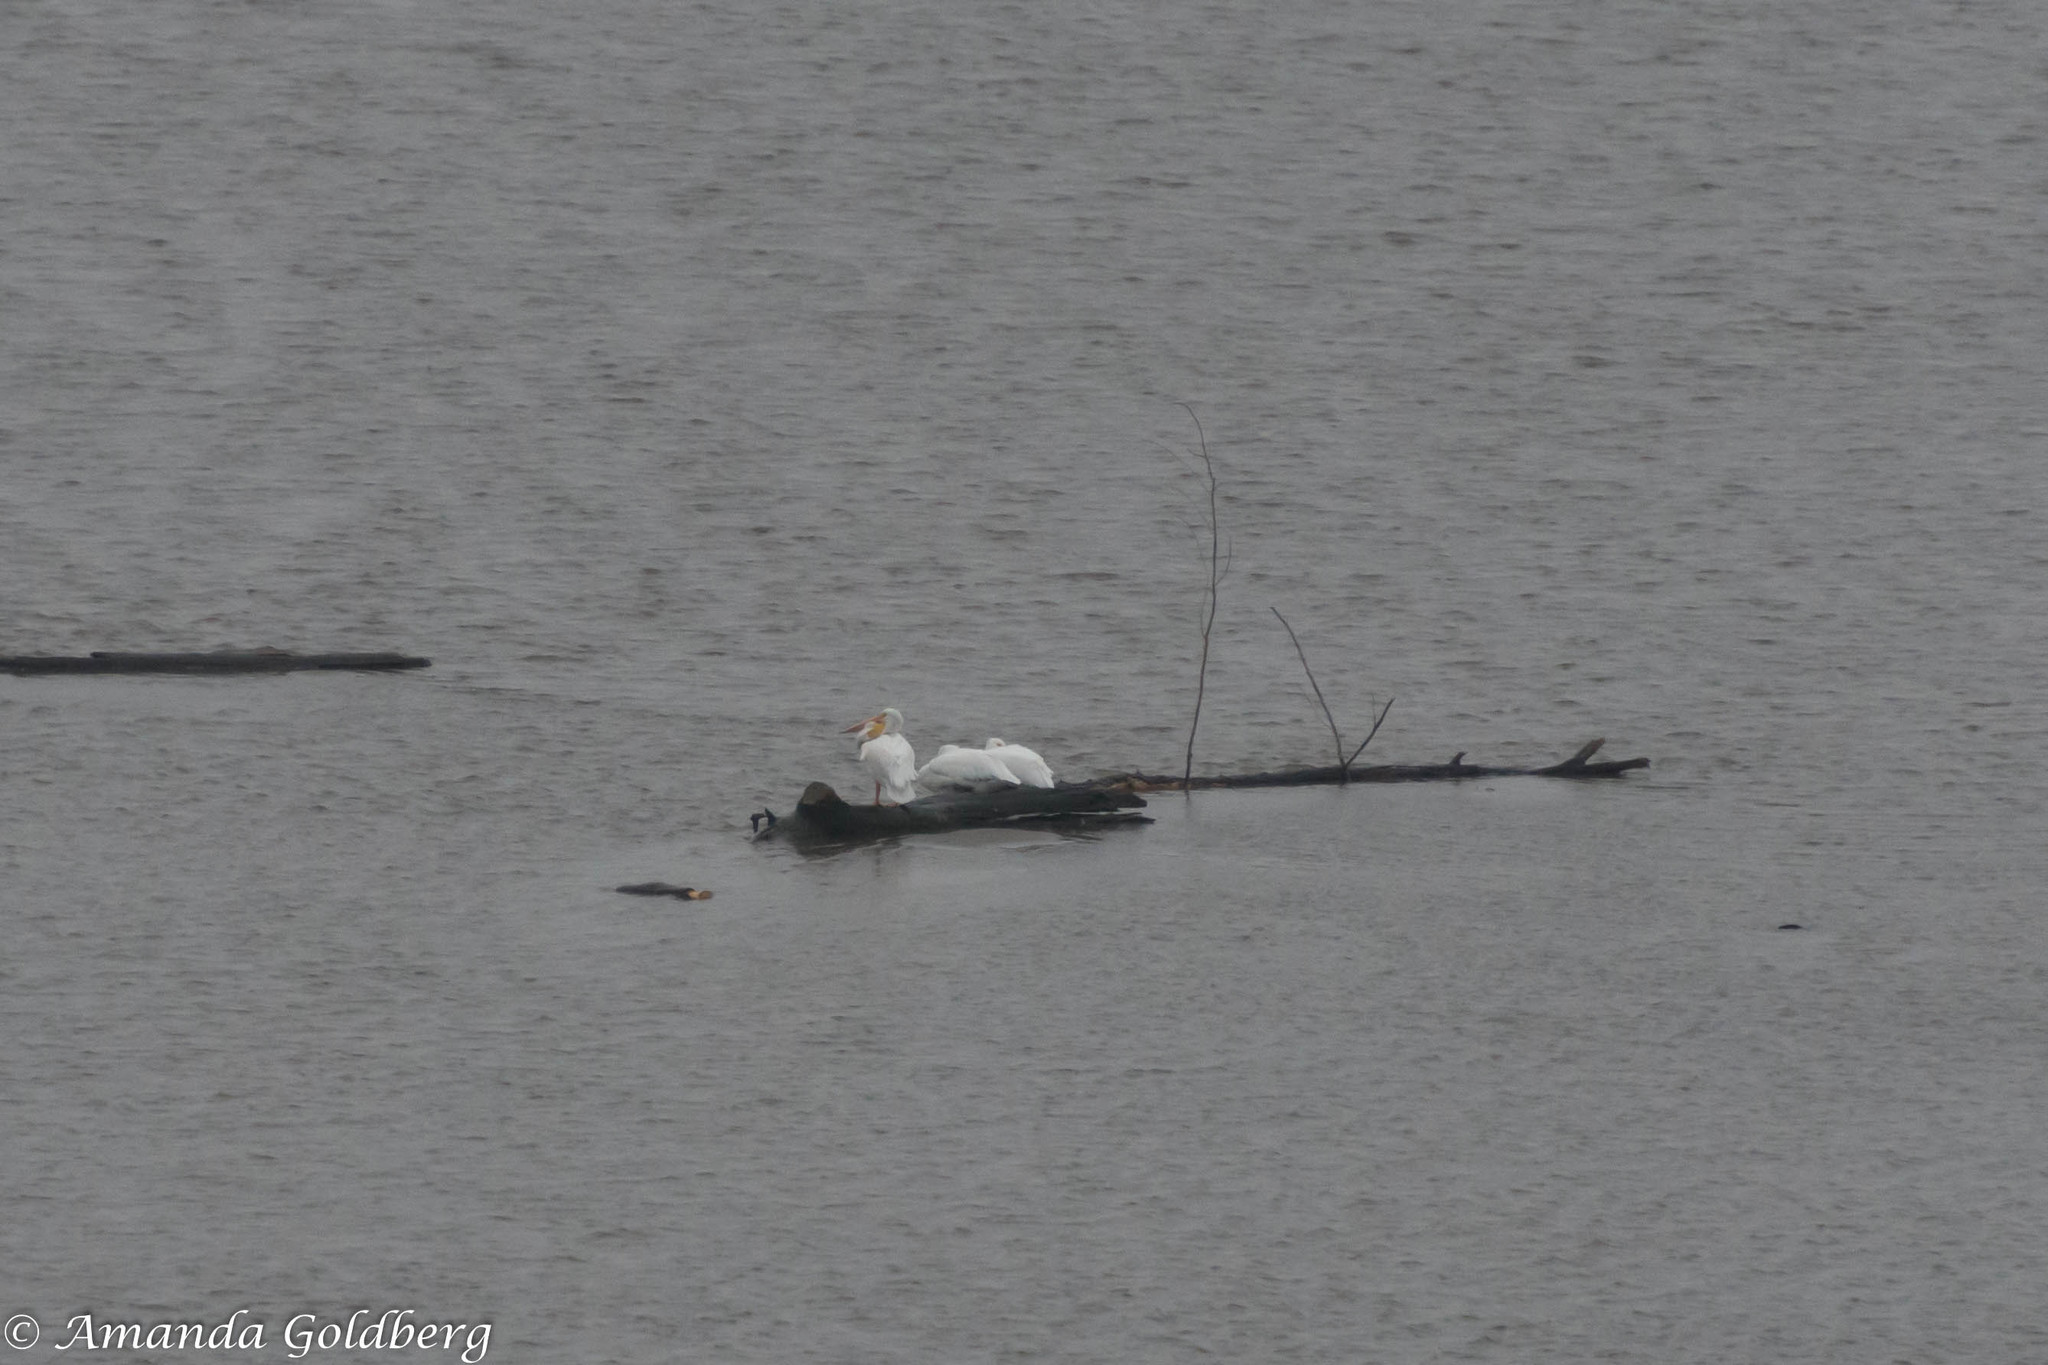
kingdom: Animalia
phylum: Chordata
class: Aves
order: Pelecaniformes
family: Pelecanidae
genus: Pelecanus
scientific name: Pelecanus erythrorhynchos
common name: American white pelican
